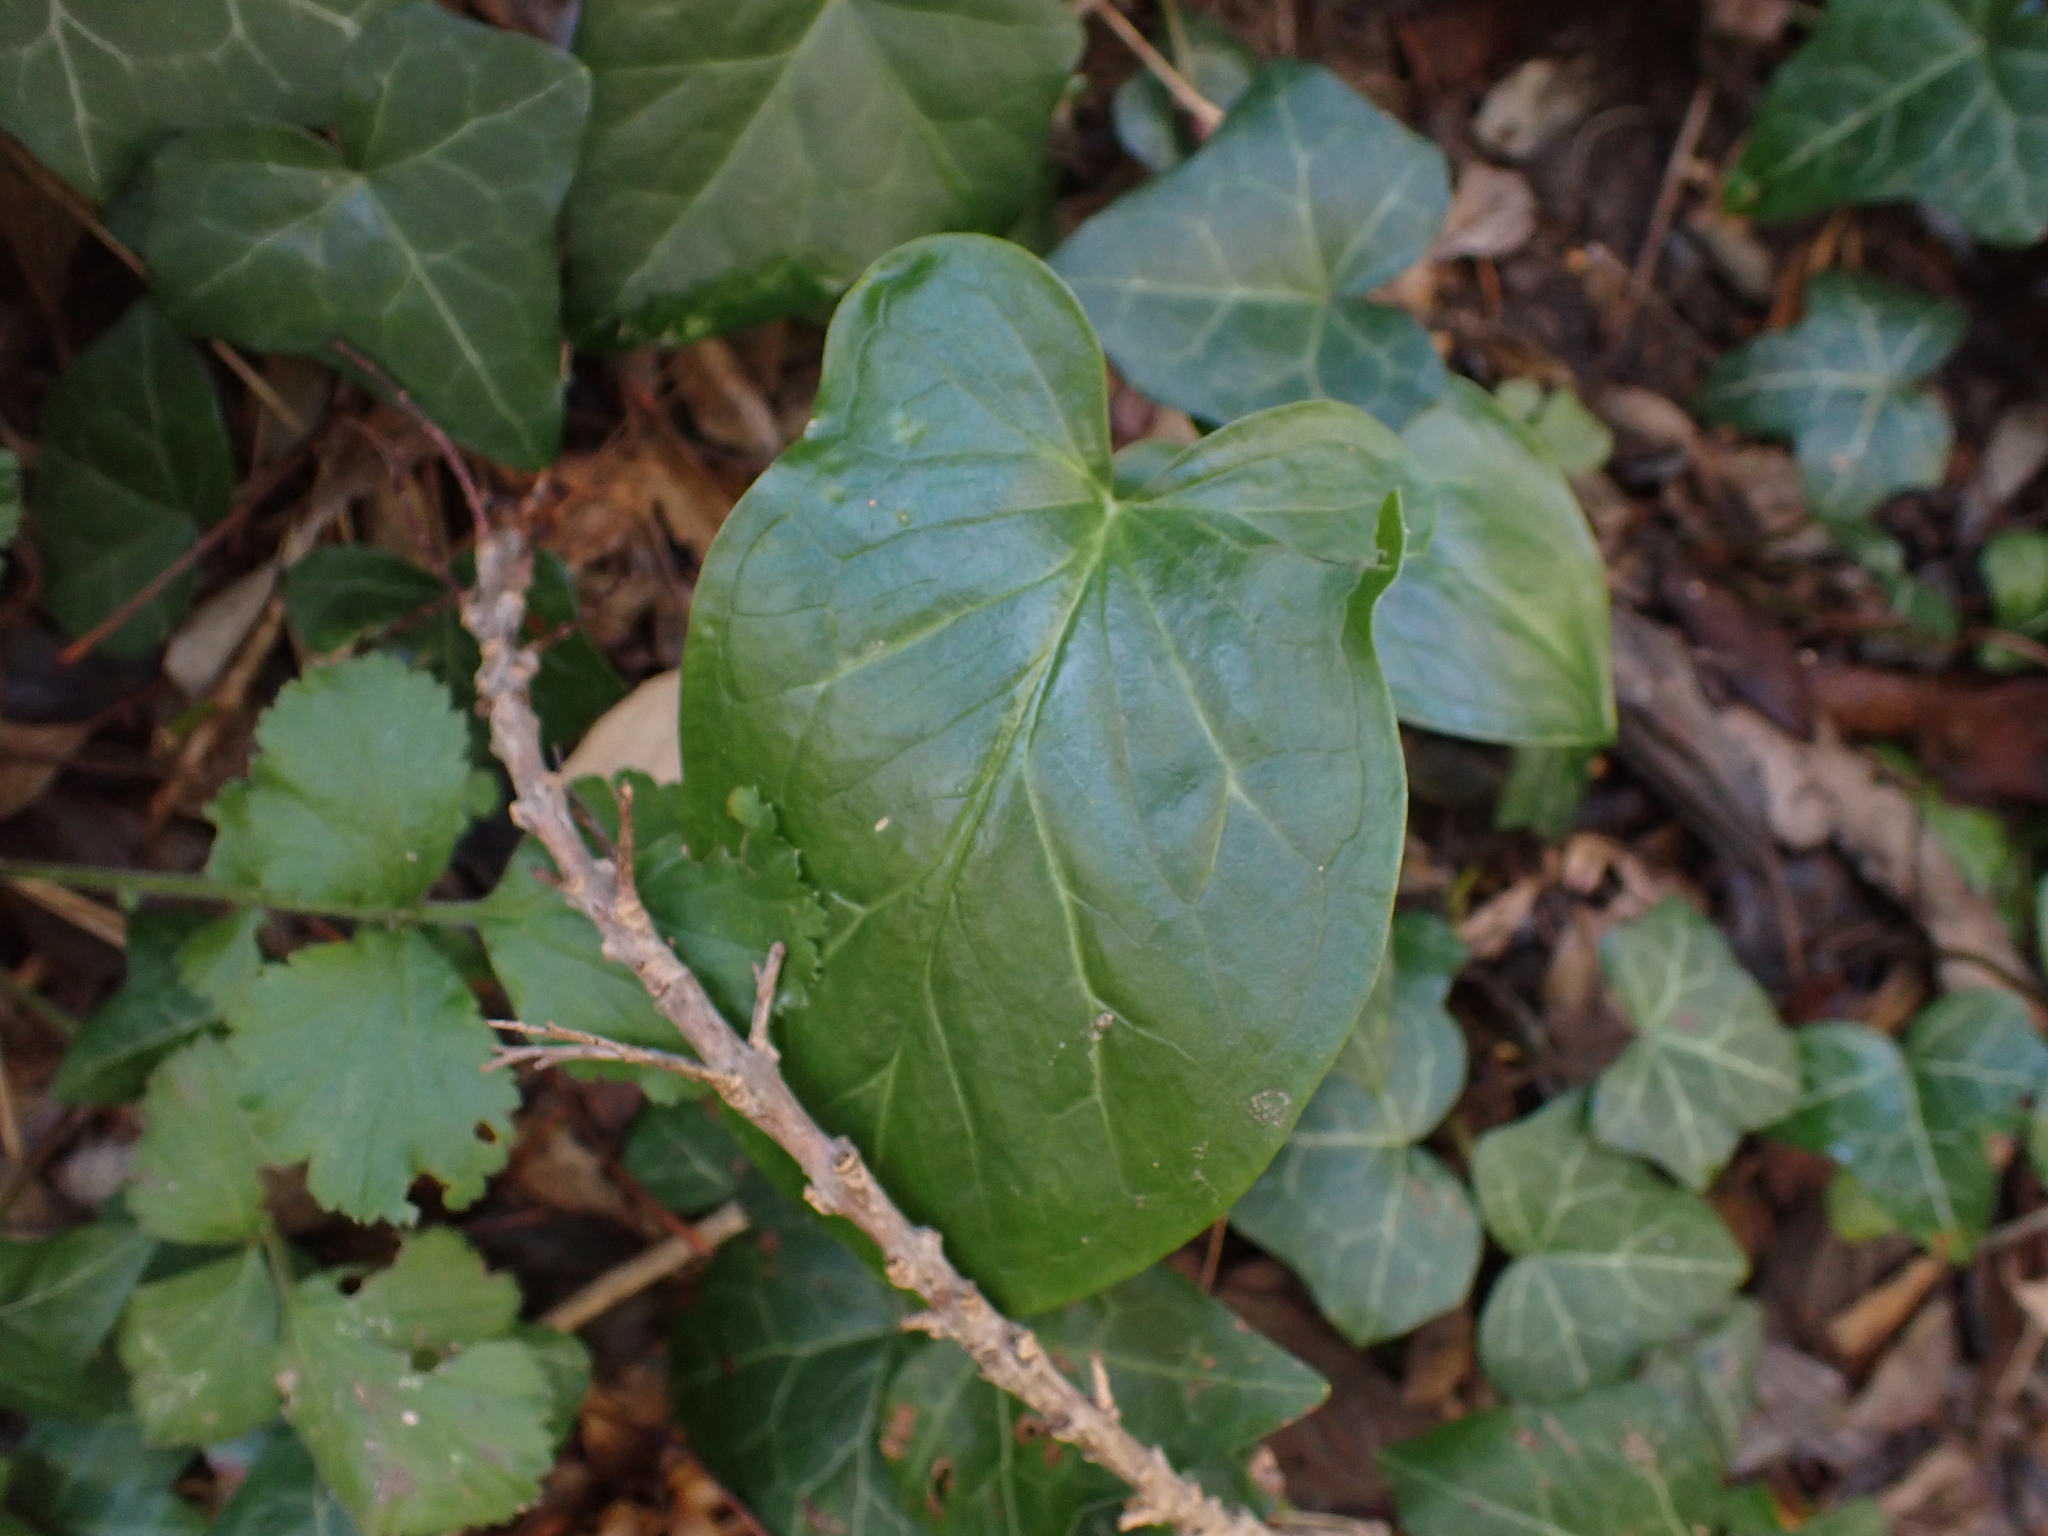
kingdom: Plantae
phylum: Tracheophyta
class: Liliopsida
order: Alismatales
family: Araceae
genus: Arum
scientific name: Arum italicum
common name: Italian lords-and-ladies
